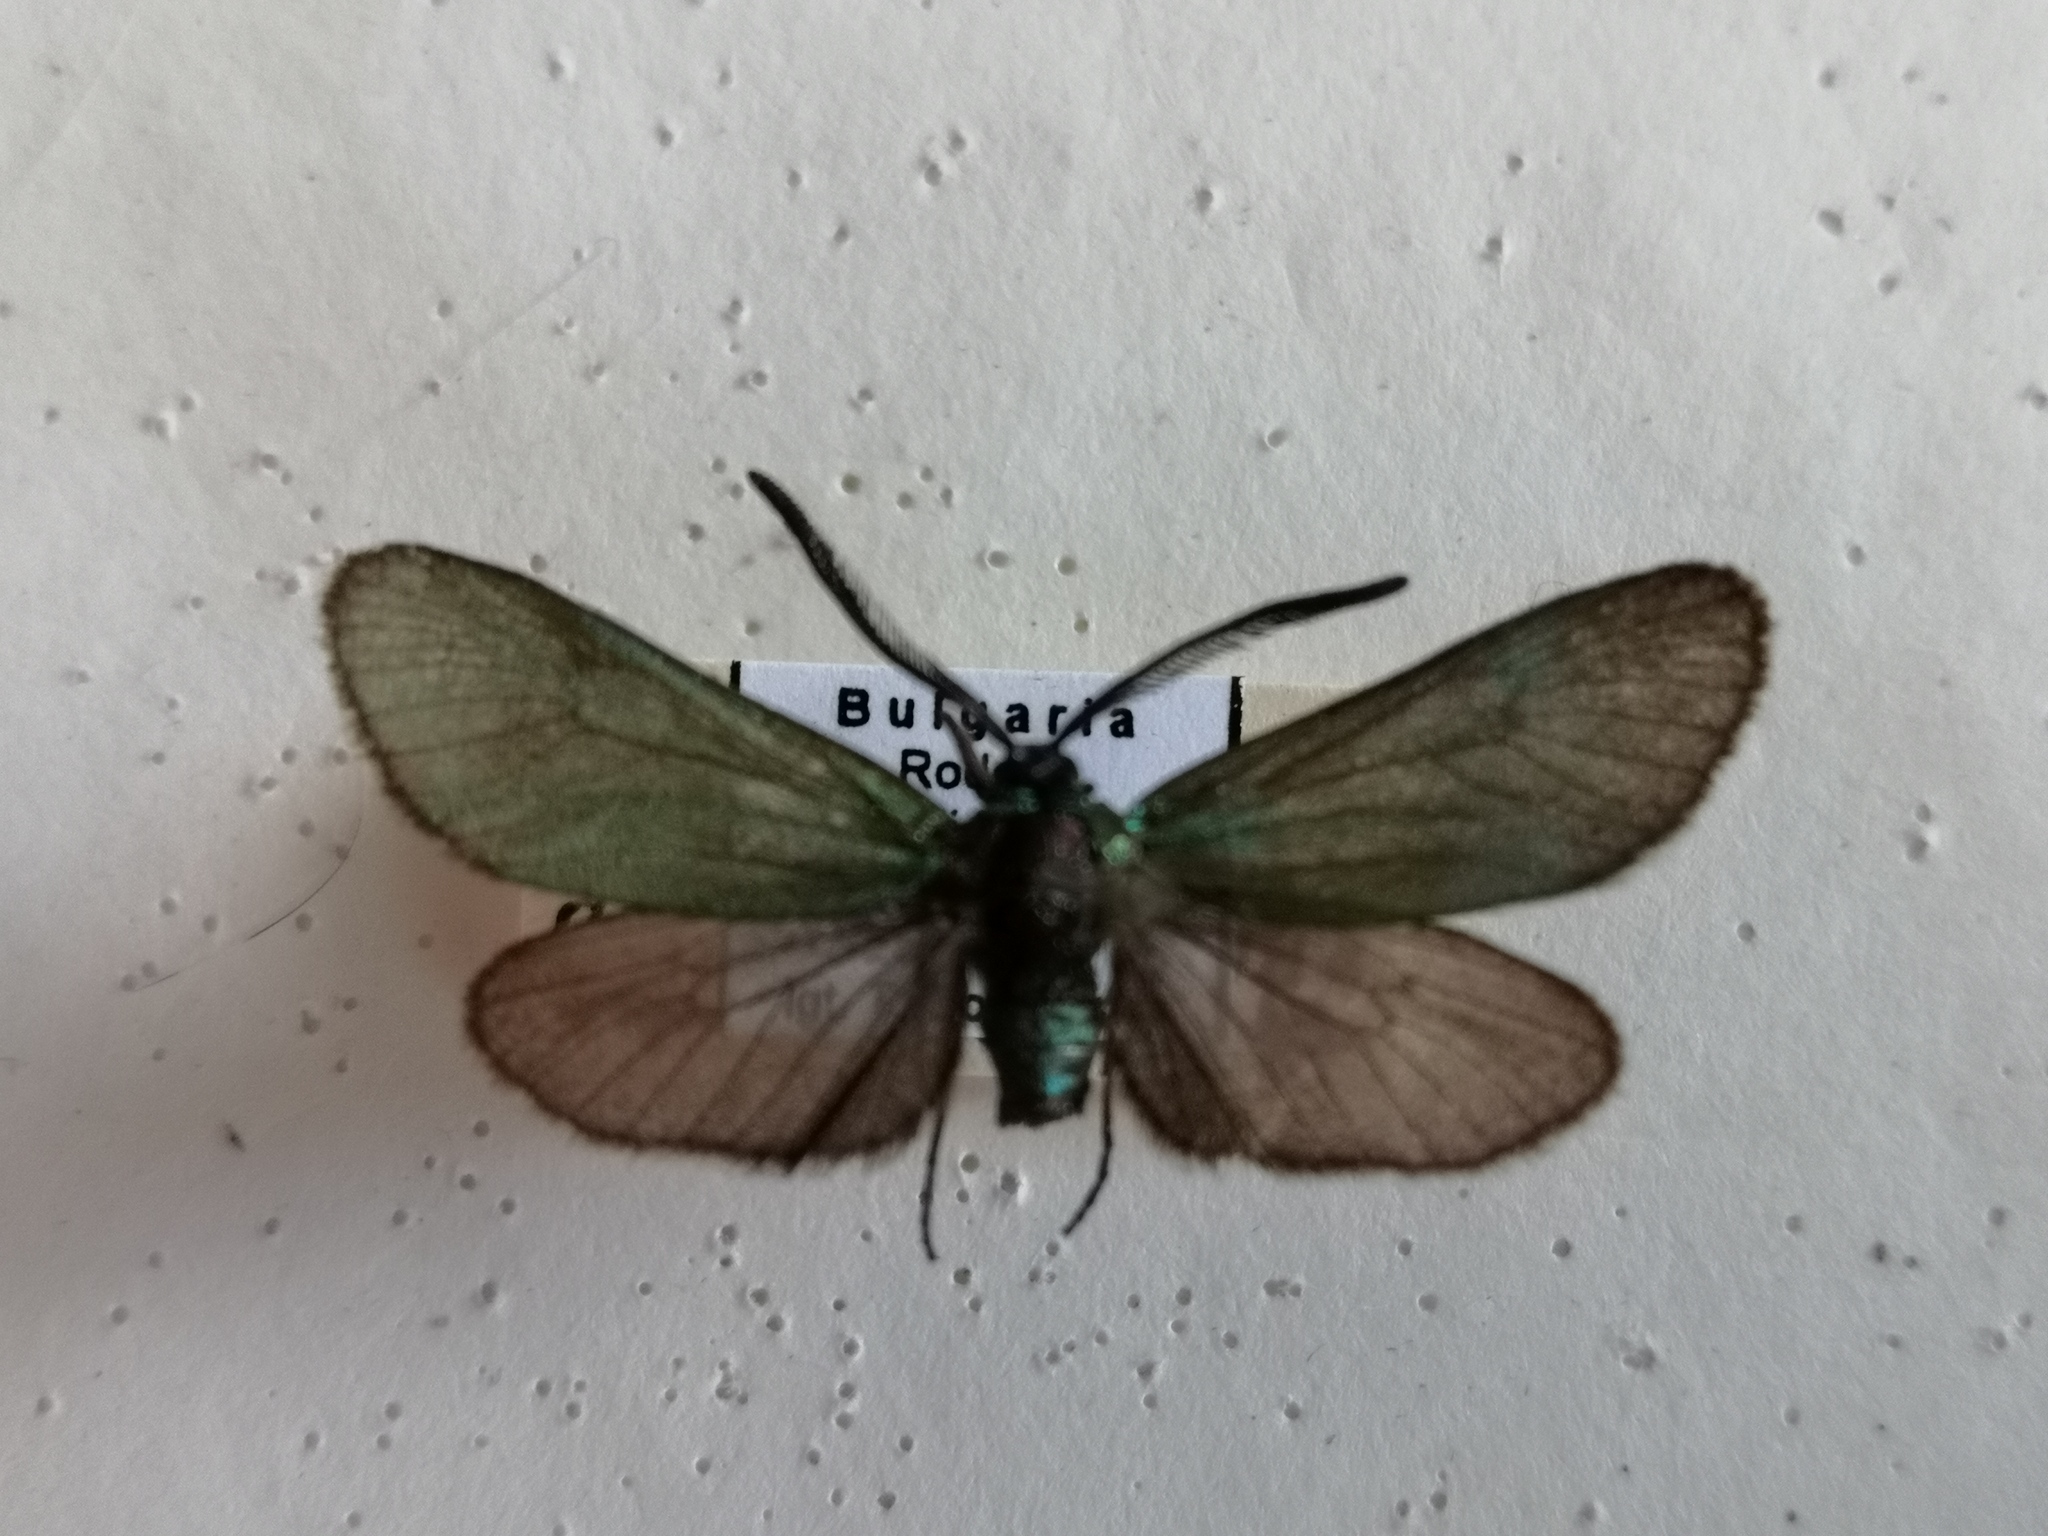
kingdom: Animalia
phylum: Arthropoda
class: Insecta
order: Lepidoptera
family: Zygaenidae
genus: Adscita
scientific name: Adscita statices
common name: Forester
